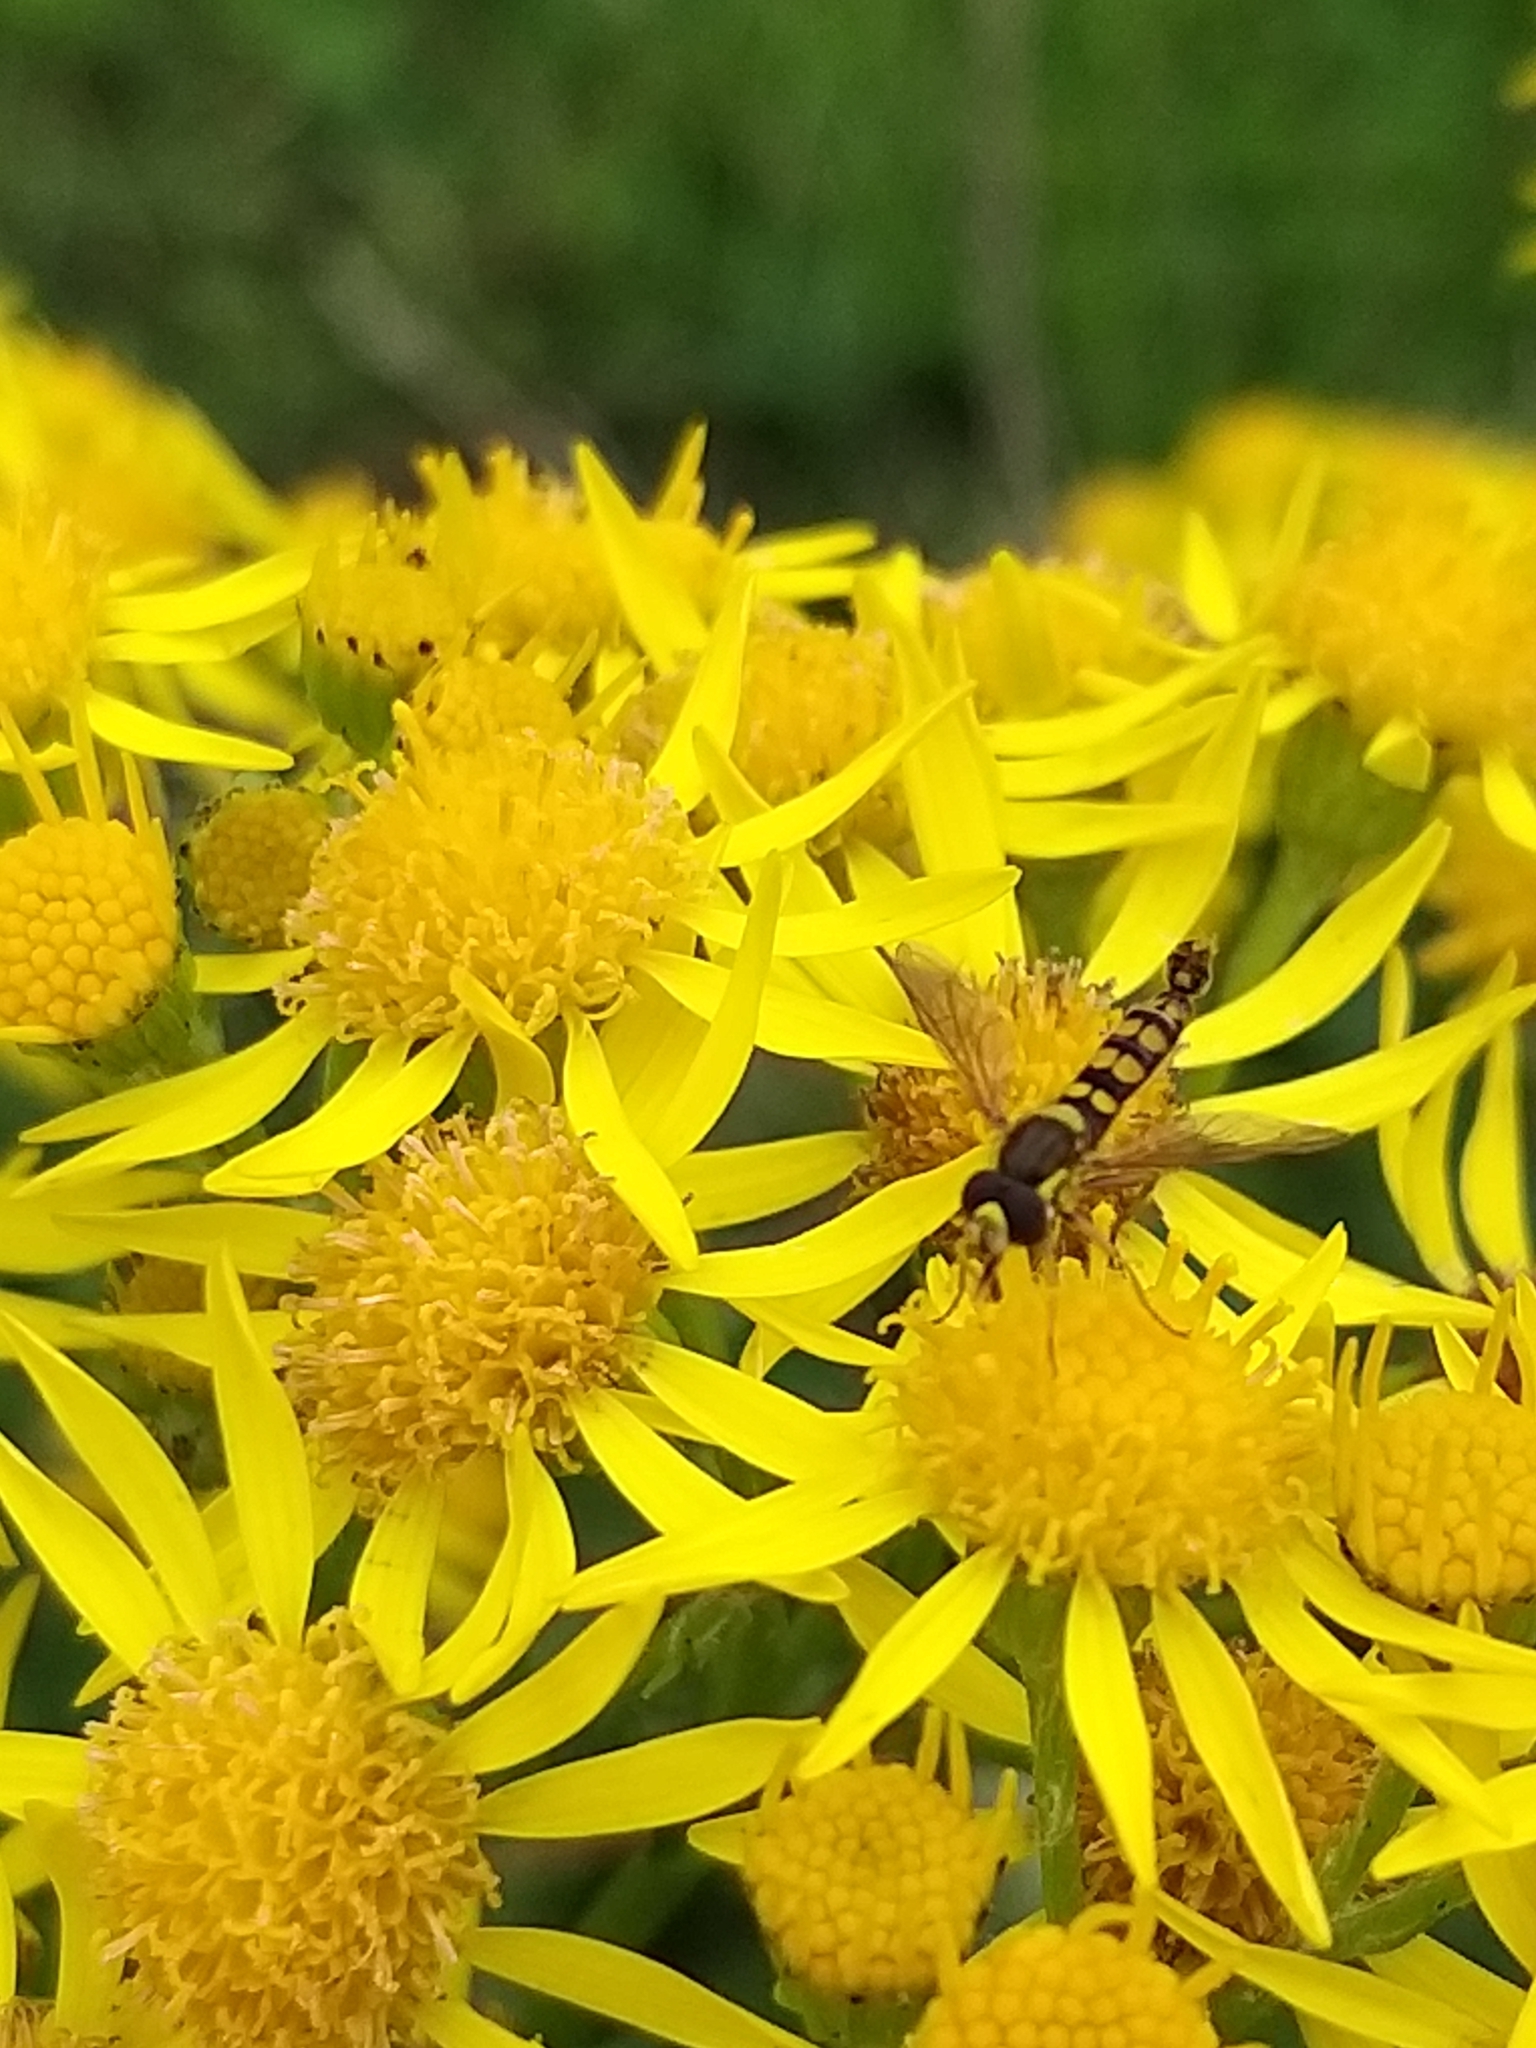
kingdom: Animalia
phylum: Arthropoda
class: Insecta
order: Diptera
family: Syrphidae
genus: Sphaerophoria
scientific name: Sphaerophoria
